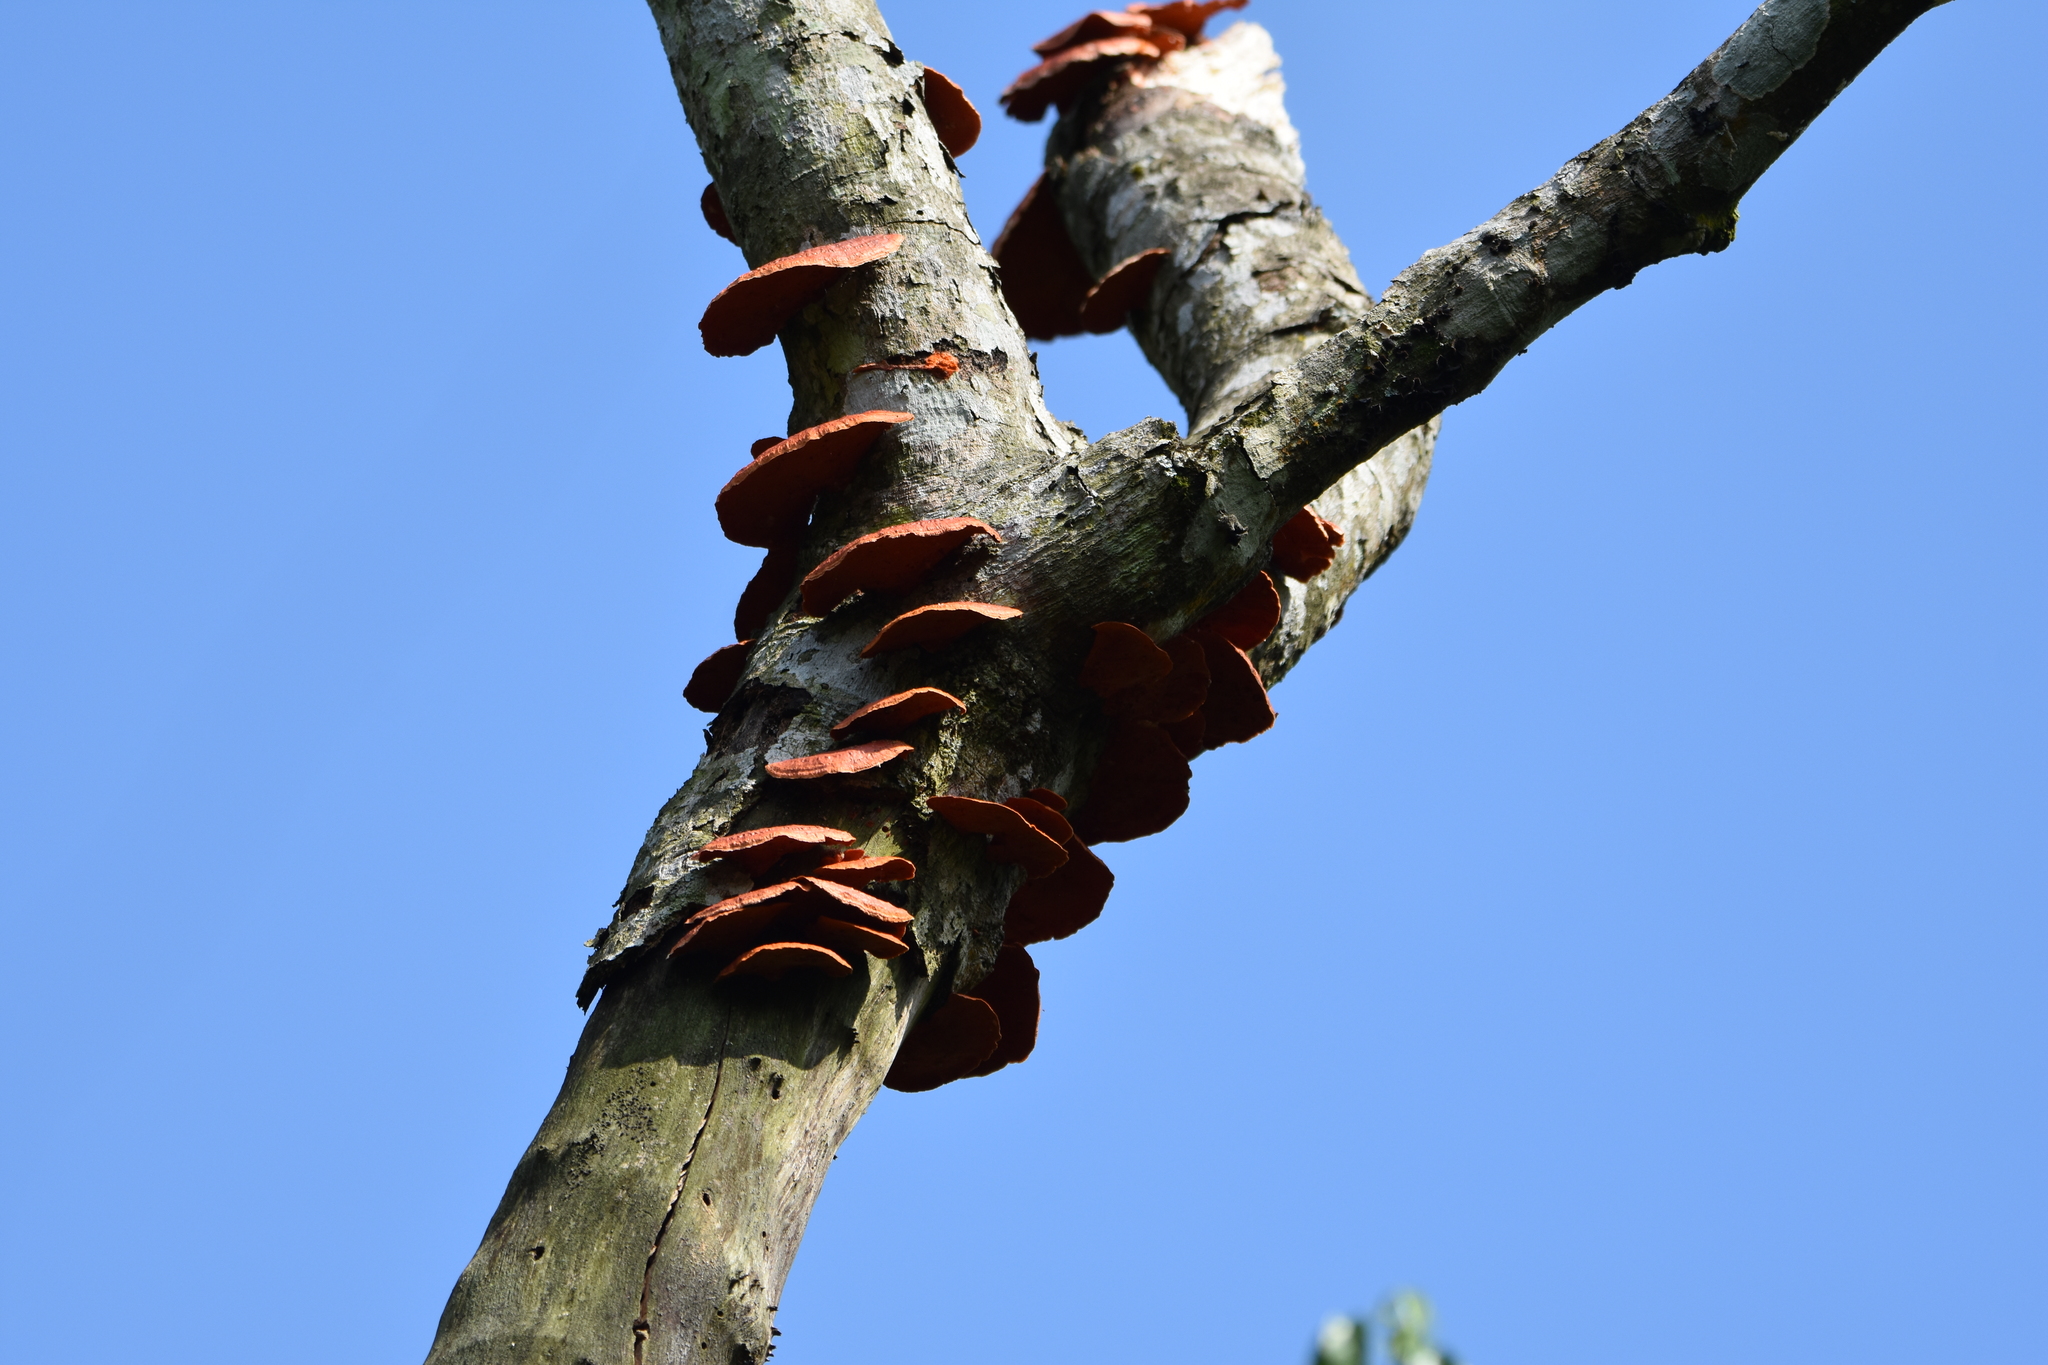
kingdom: Fungi
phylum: Basidiomycota
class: Agaricomycetes
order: Polyporales
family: Polyporaceae
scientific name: Polyporaceae
